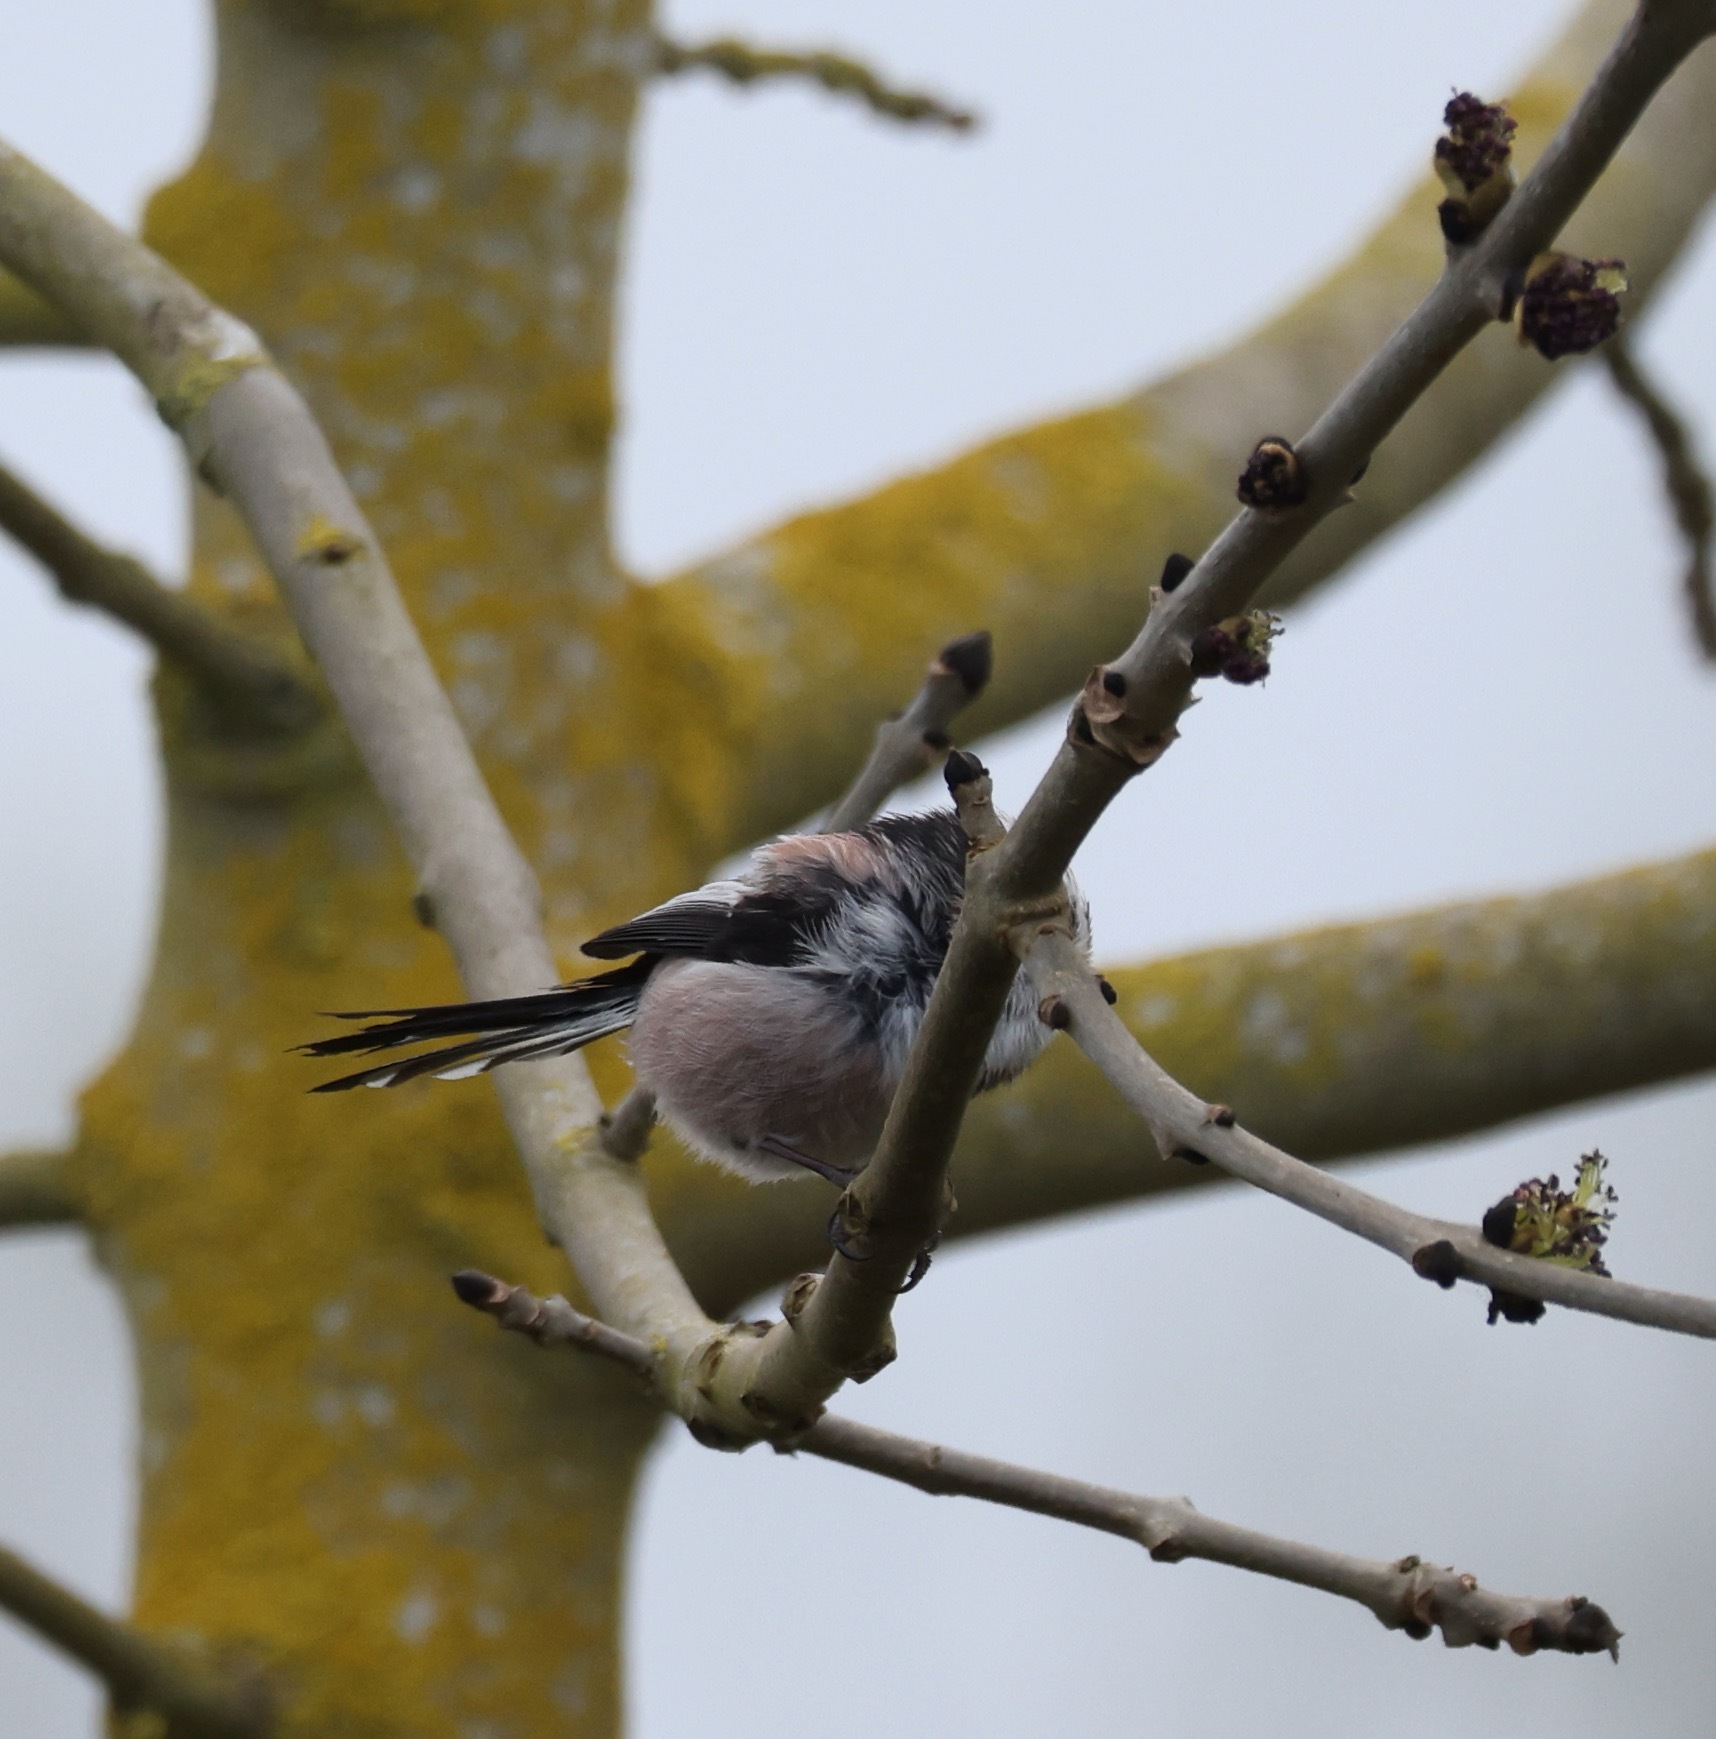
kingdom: Animalia
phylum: Chordata
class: Aves
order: Passeriformes
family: Aegithalidae
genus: Aegithalos
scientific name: Aegithalos caudatus
